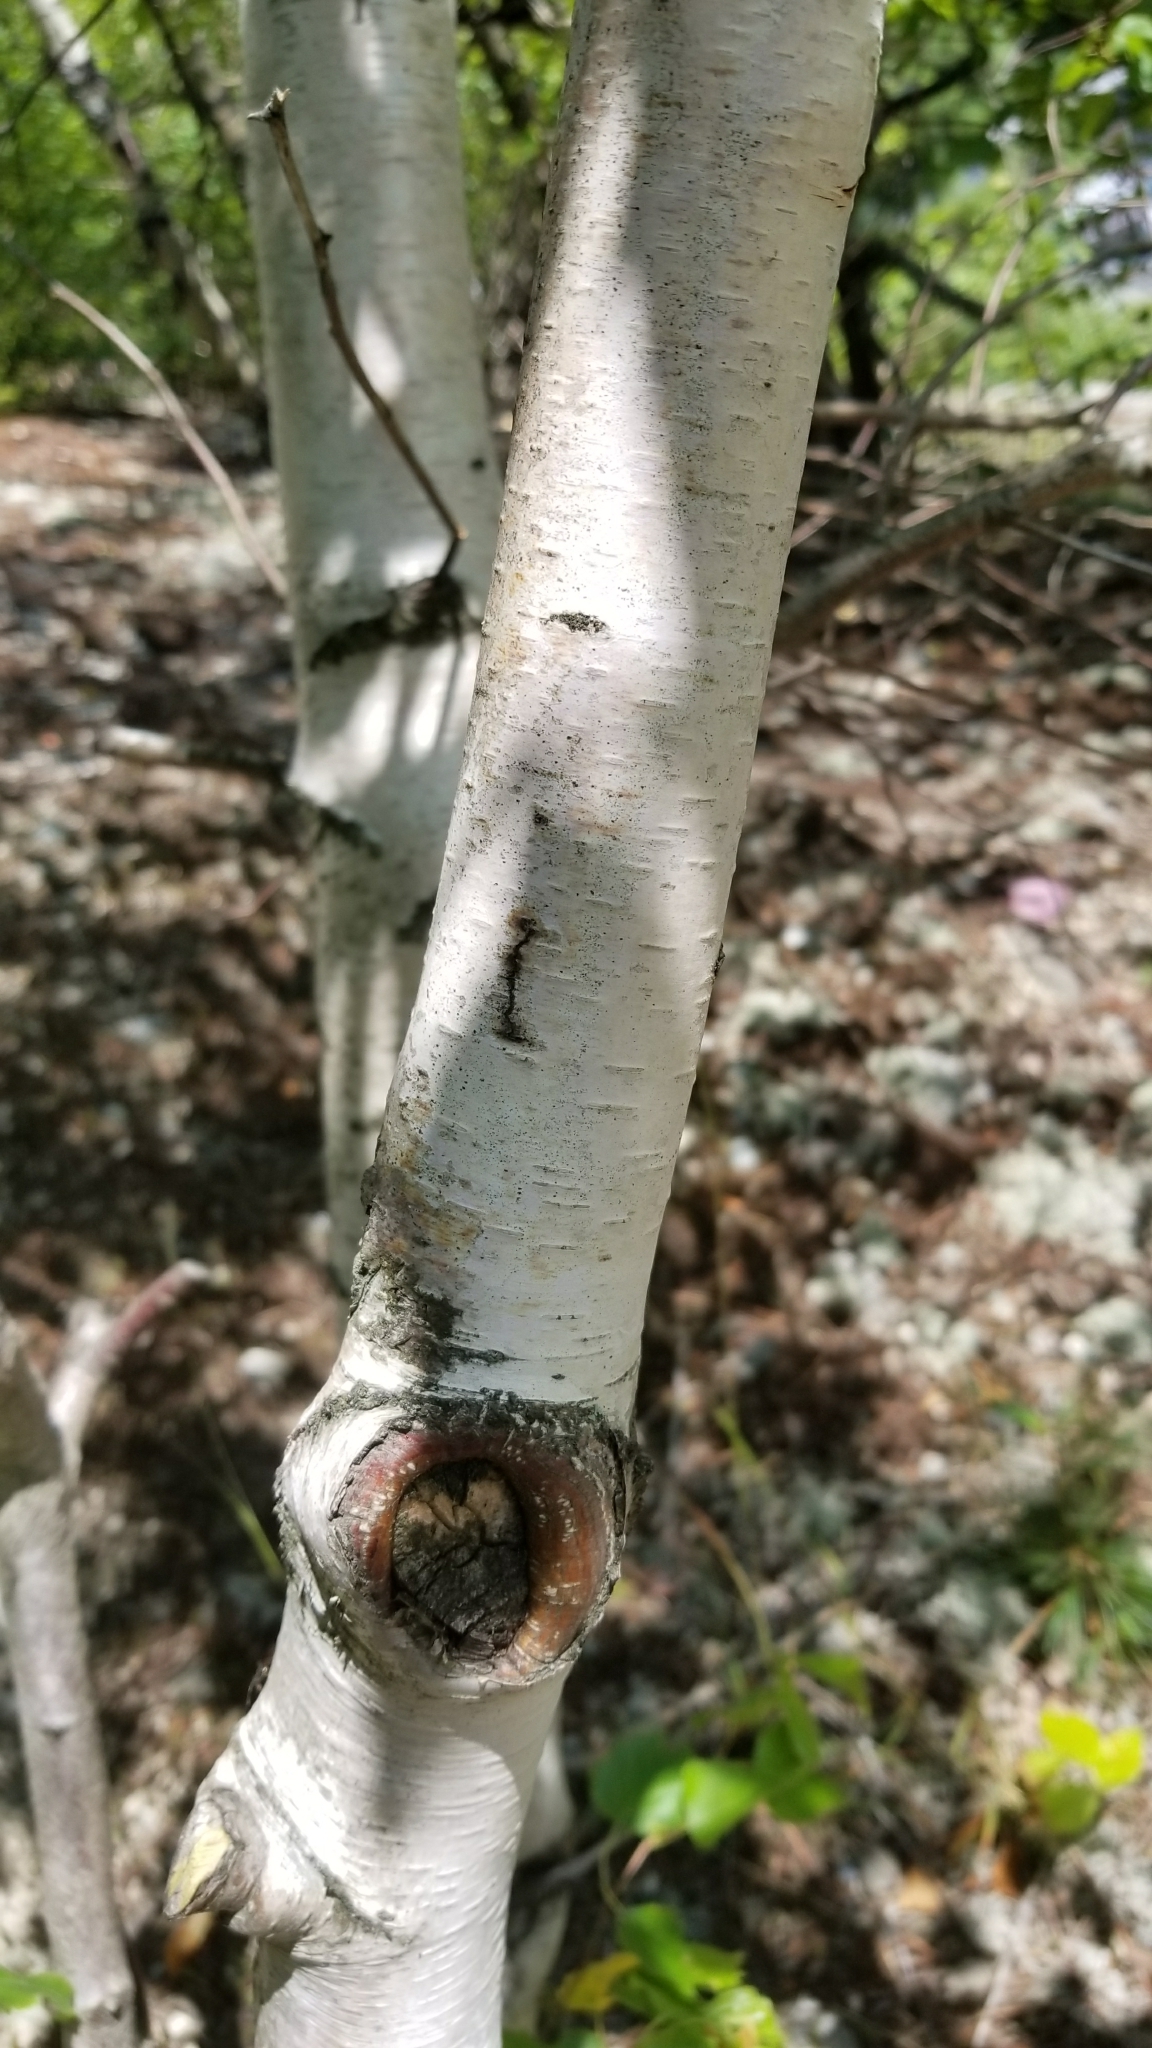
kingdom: Plantae
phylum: Tracheophyta
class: Magnoliopsida
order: Fagales
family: Betulaceae
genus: Betula
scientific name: Betula populifolia
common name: Fire birch
